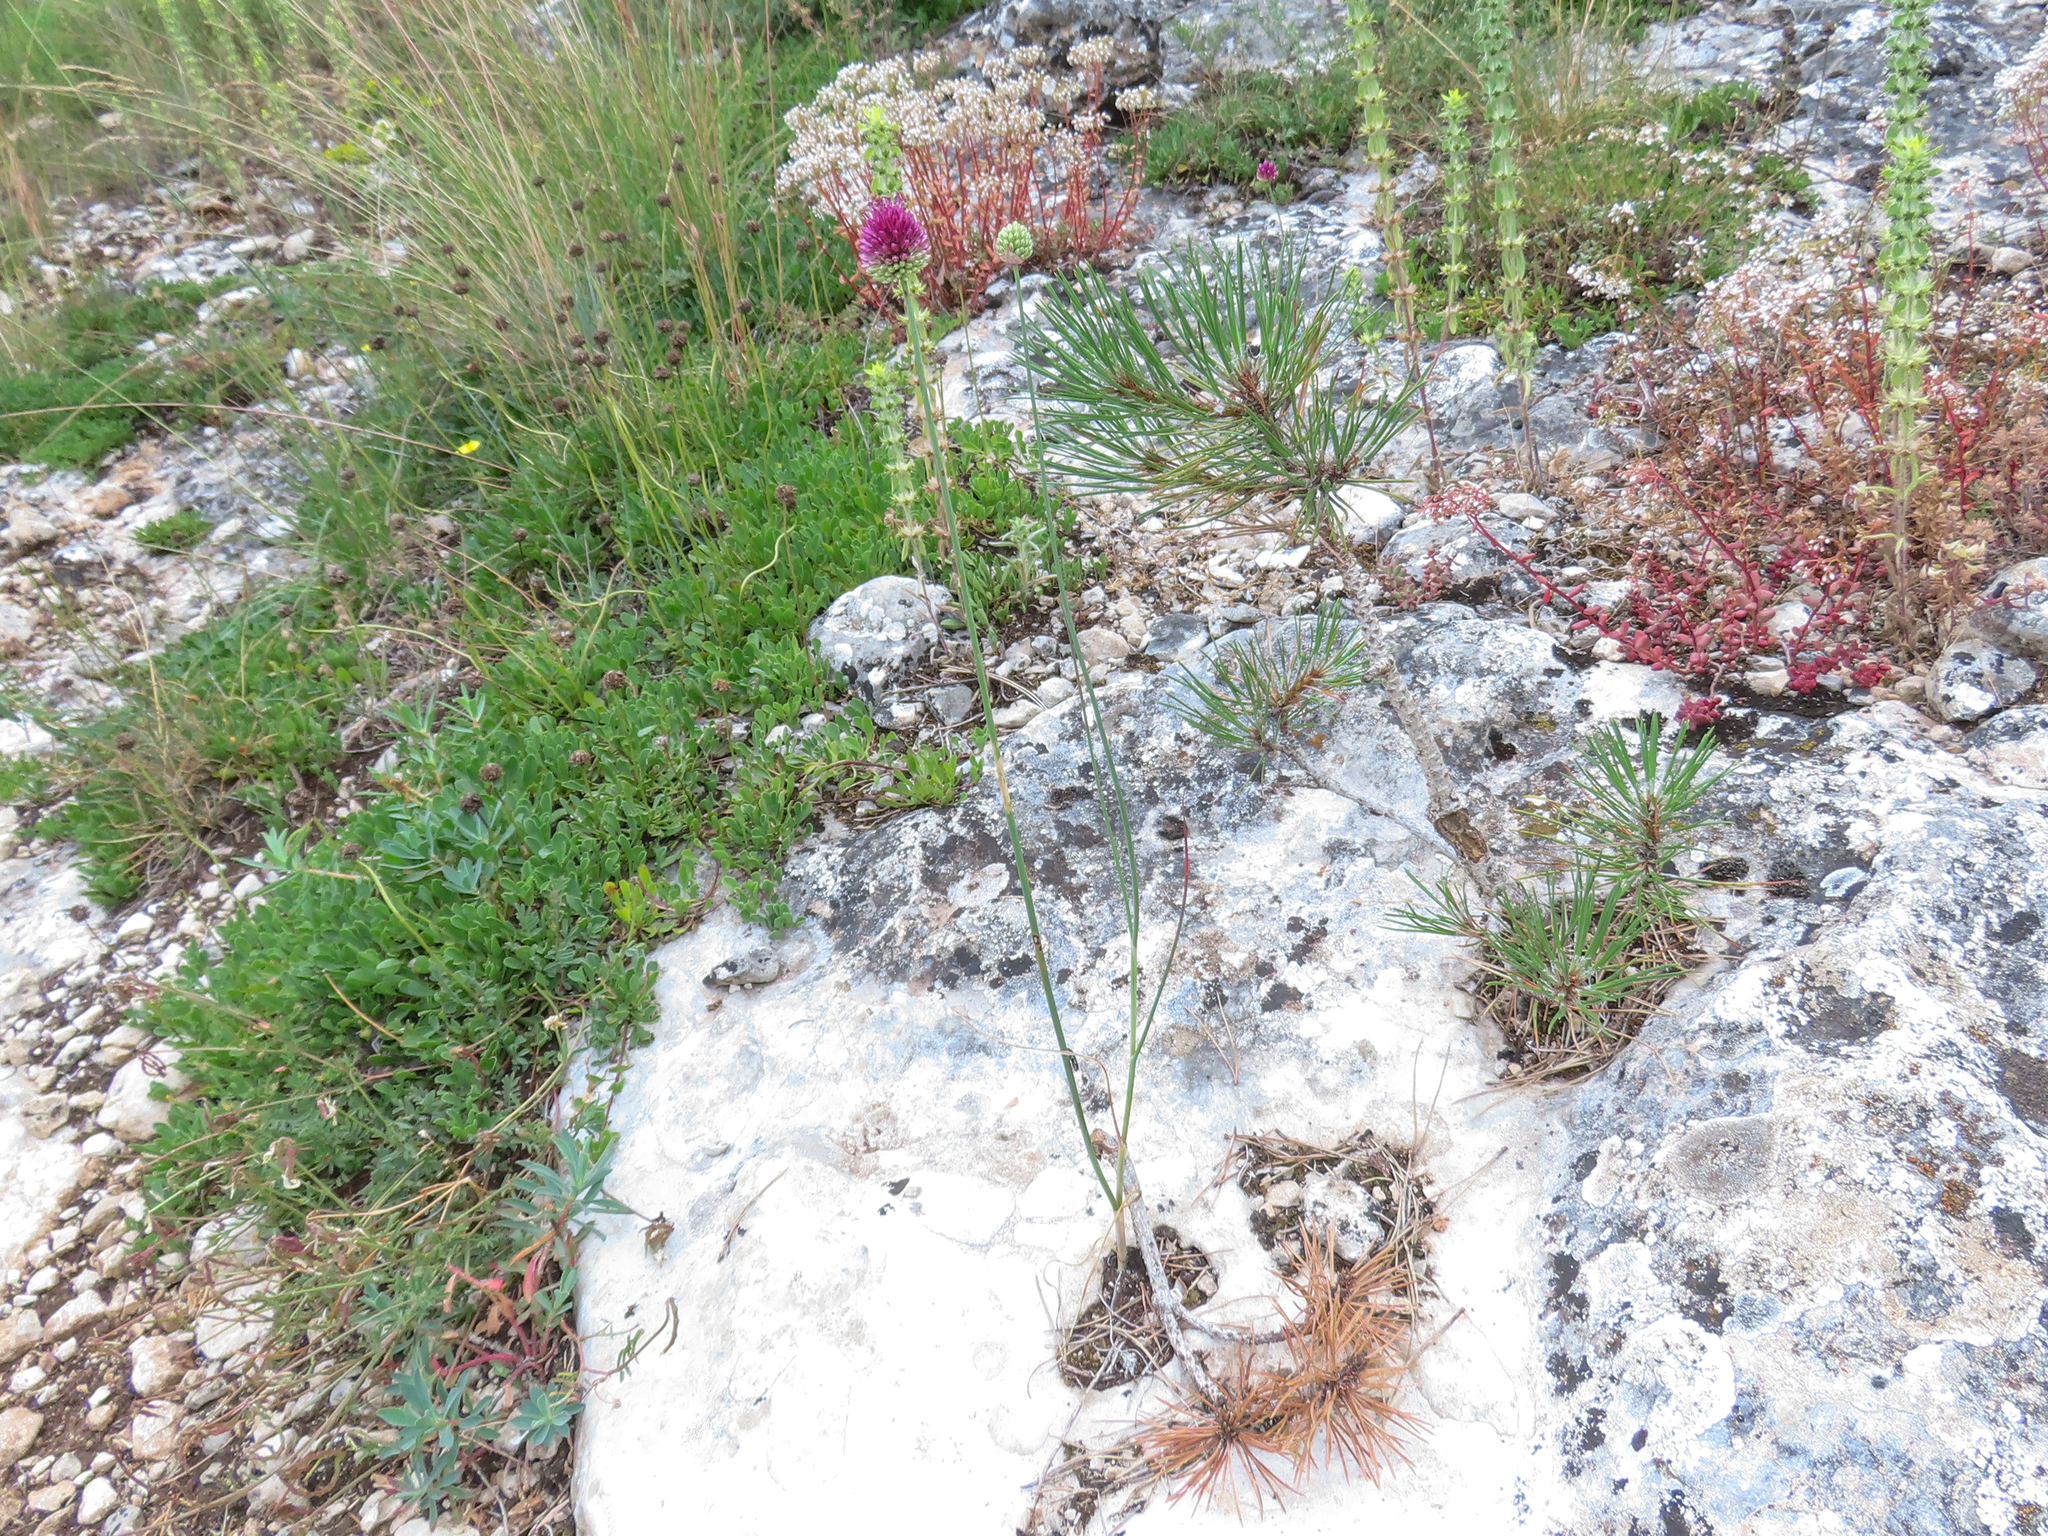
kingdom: Plantae
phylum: Tracheophyta
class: Liliopsida
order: Asparagales
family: Amaryllidaceae
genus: Allium
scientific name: Allium sphaerocephalon
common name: Round-headed leek
